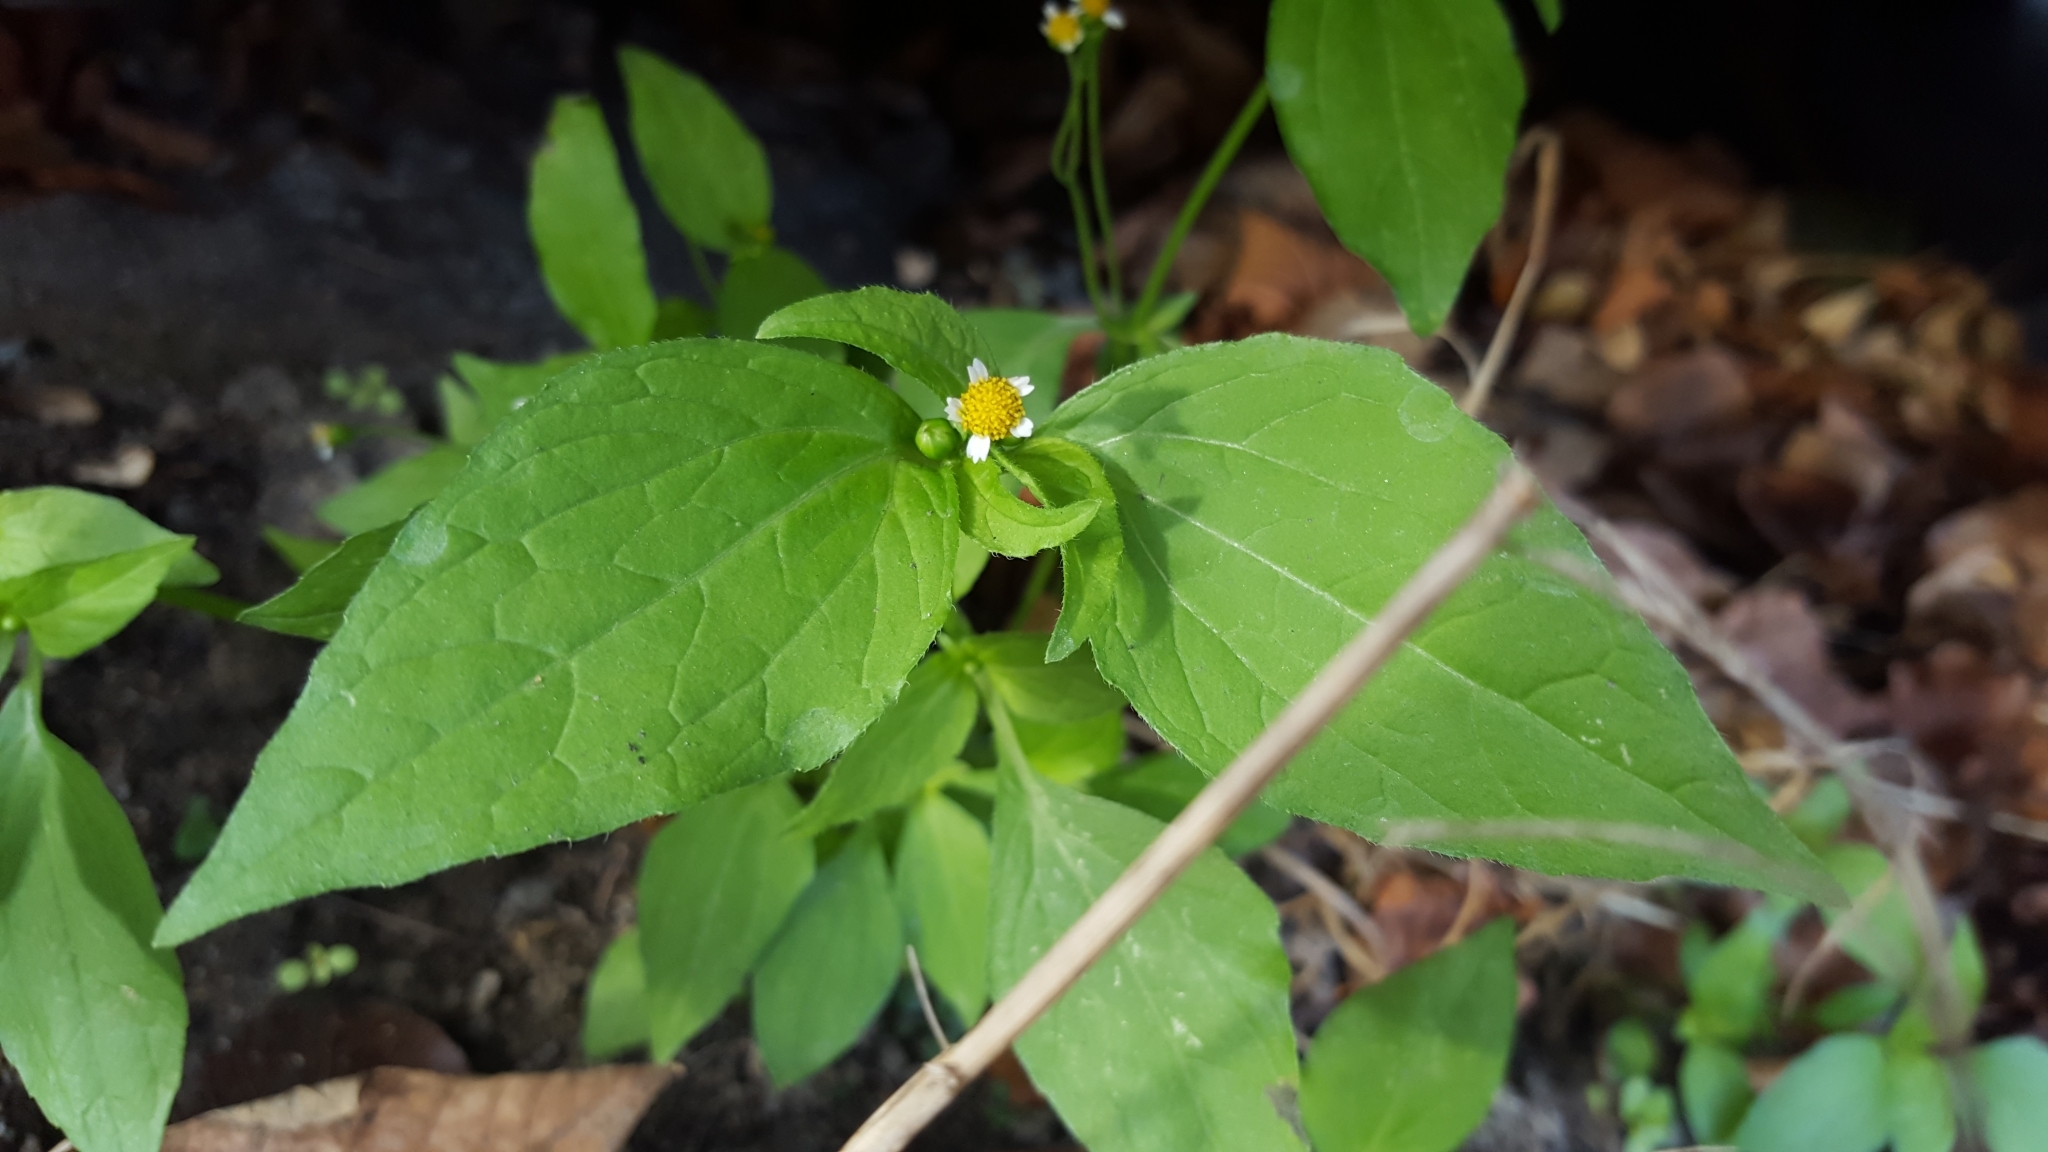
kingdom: Plantae
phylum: Tracheophyta
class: Magnoliopsida
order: Asterales
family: Asteraceae
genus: Galinsoga
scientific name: Galinsoga parviflora
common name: Gallant soldier
